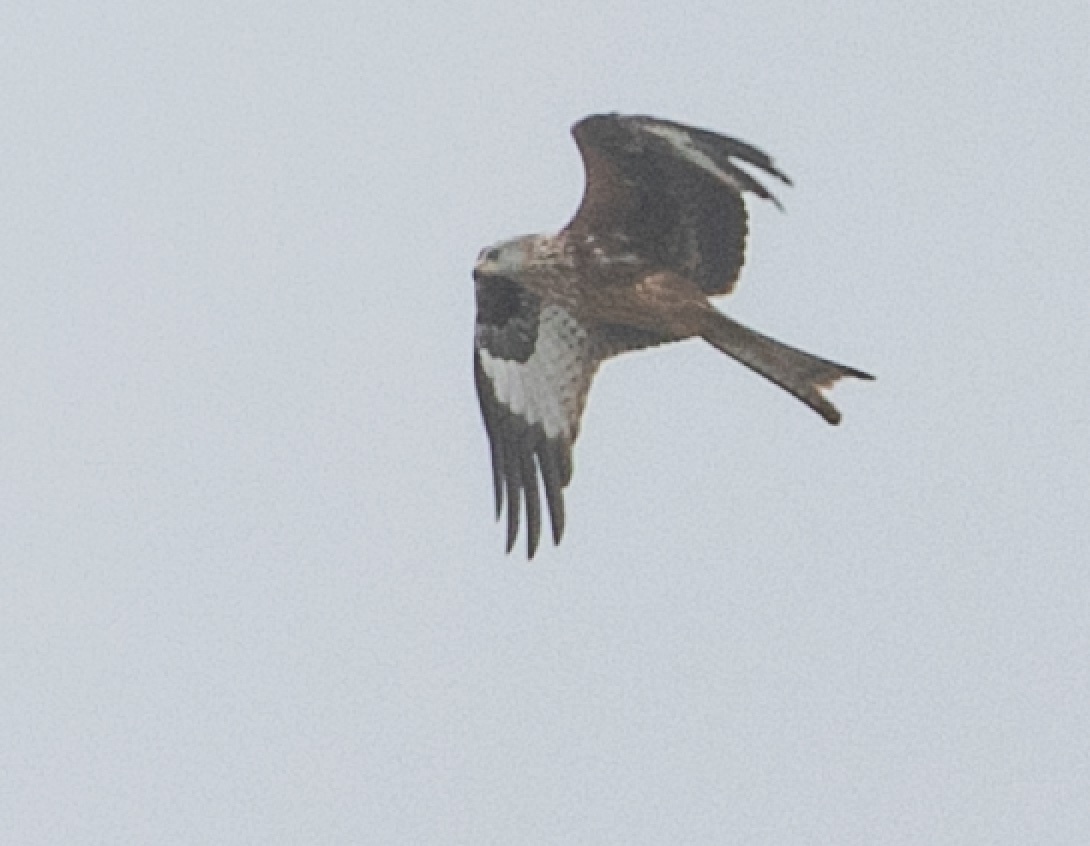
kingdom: Animalia
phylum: Chordata
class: Aves
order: Accipitriformes
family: Accipitridae
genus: Milvus
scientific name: Milvus milvus
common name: Red kite
